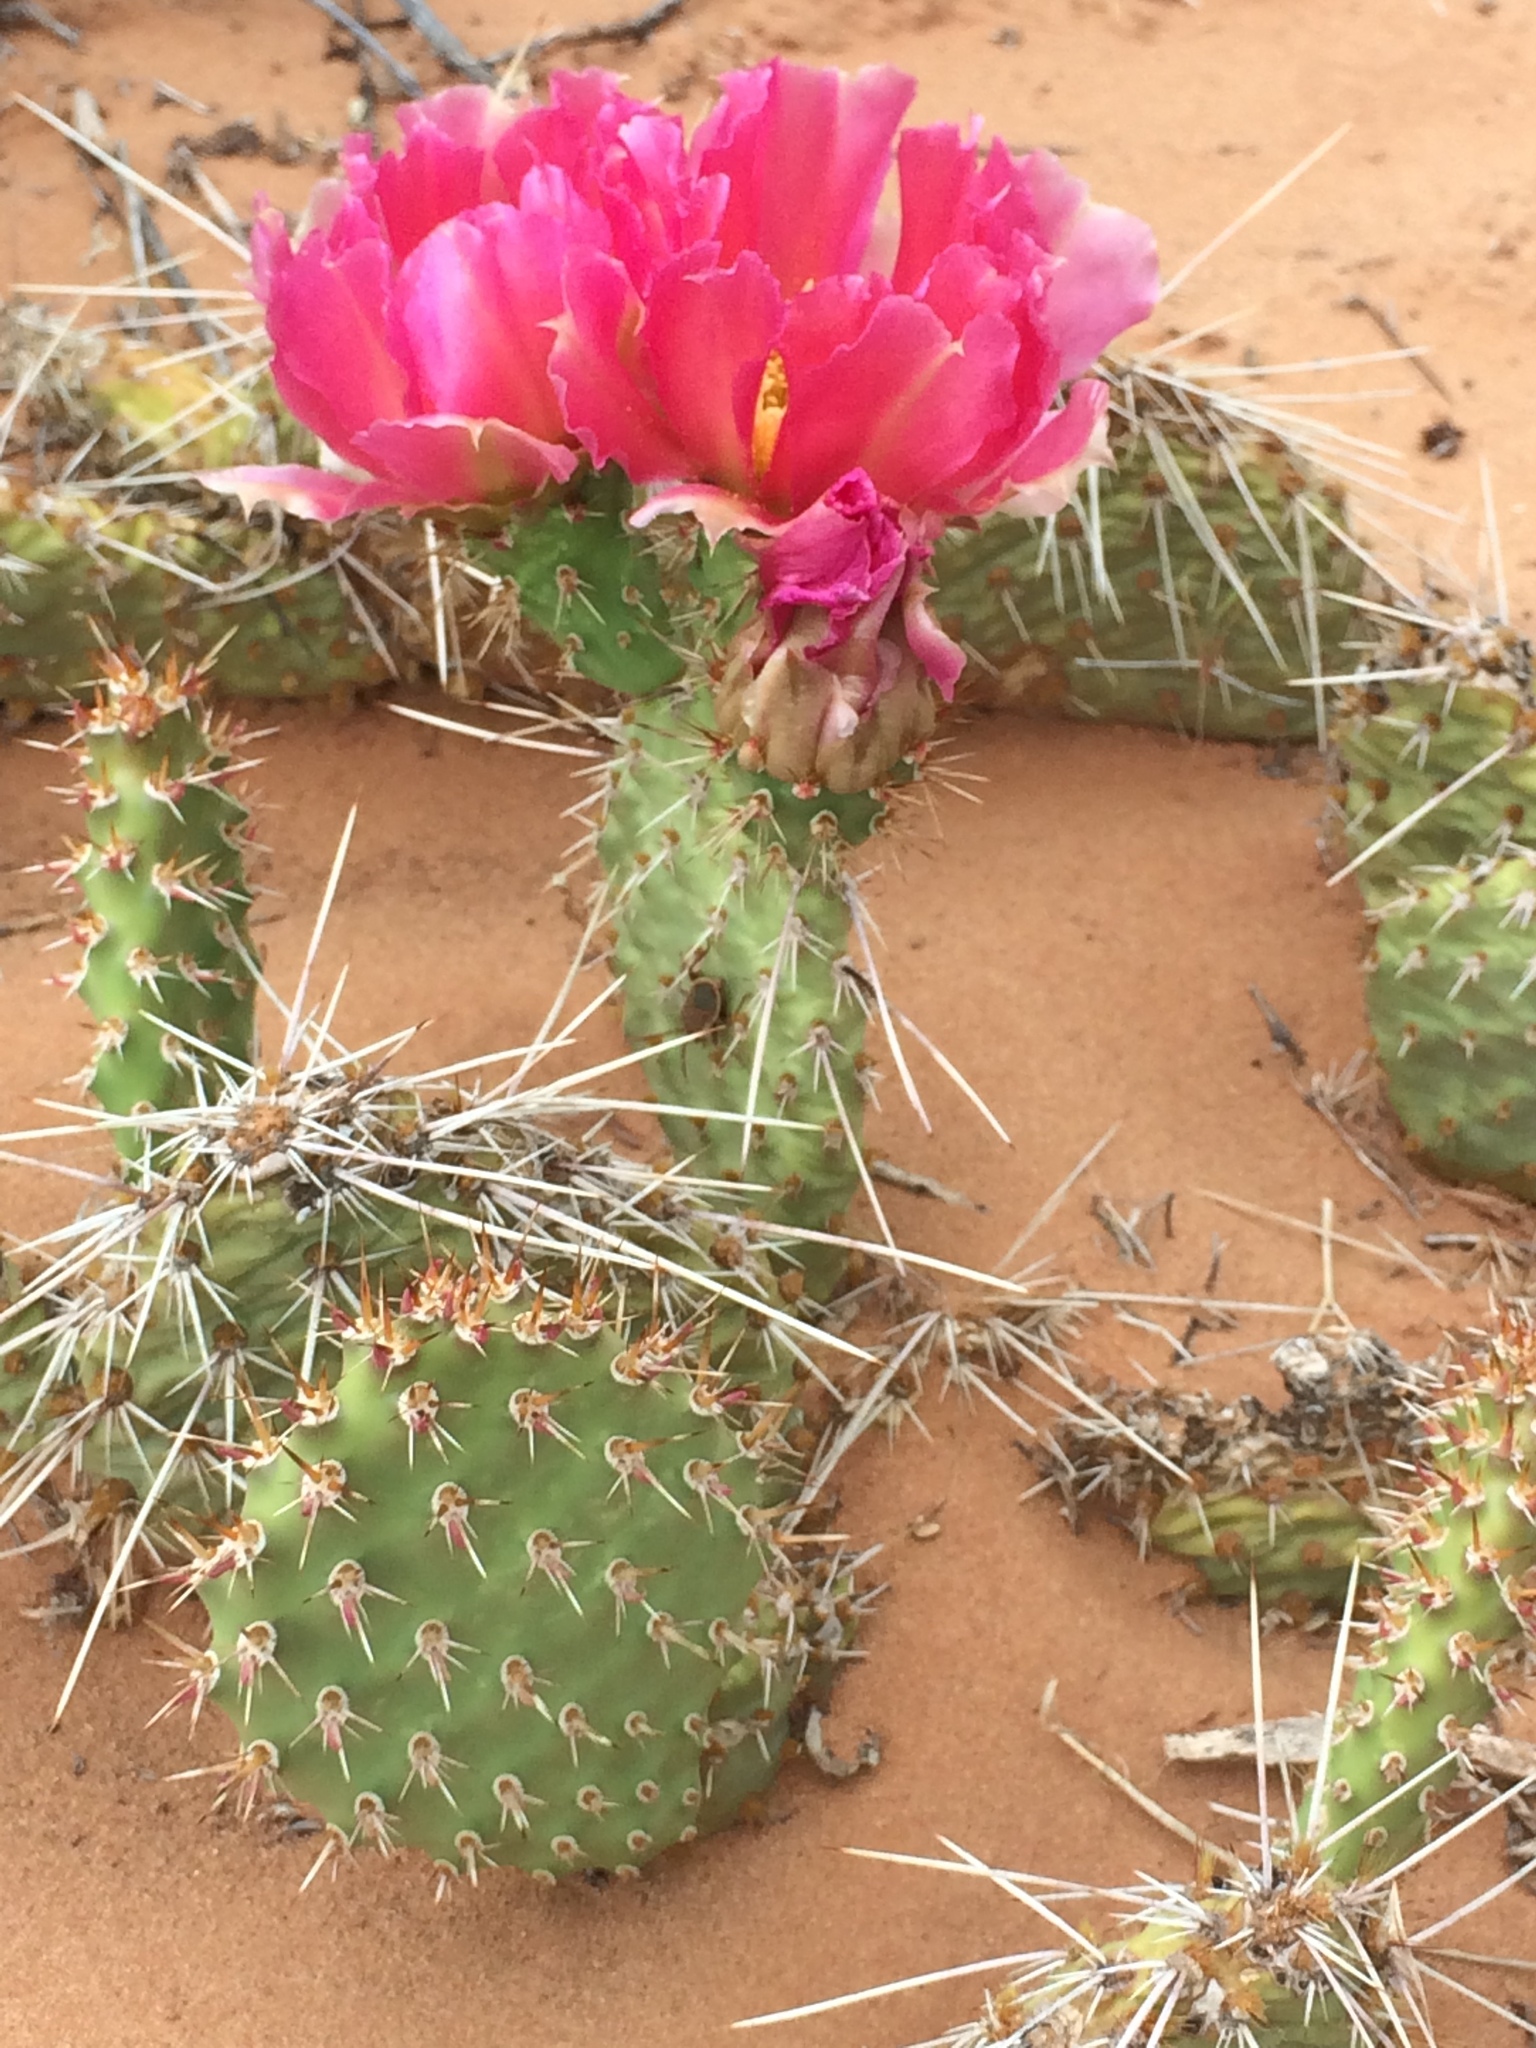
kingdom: Plantae
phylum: Tracheophyta
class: Magnoliopsida
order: Caryophyllales
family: Cactaceae
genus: Opuntia
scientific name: Opuntia polyacantha
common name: Plains prickly-pear
